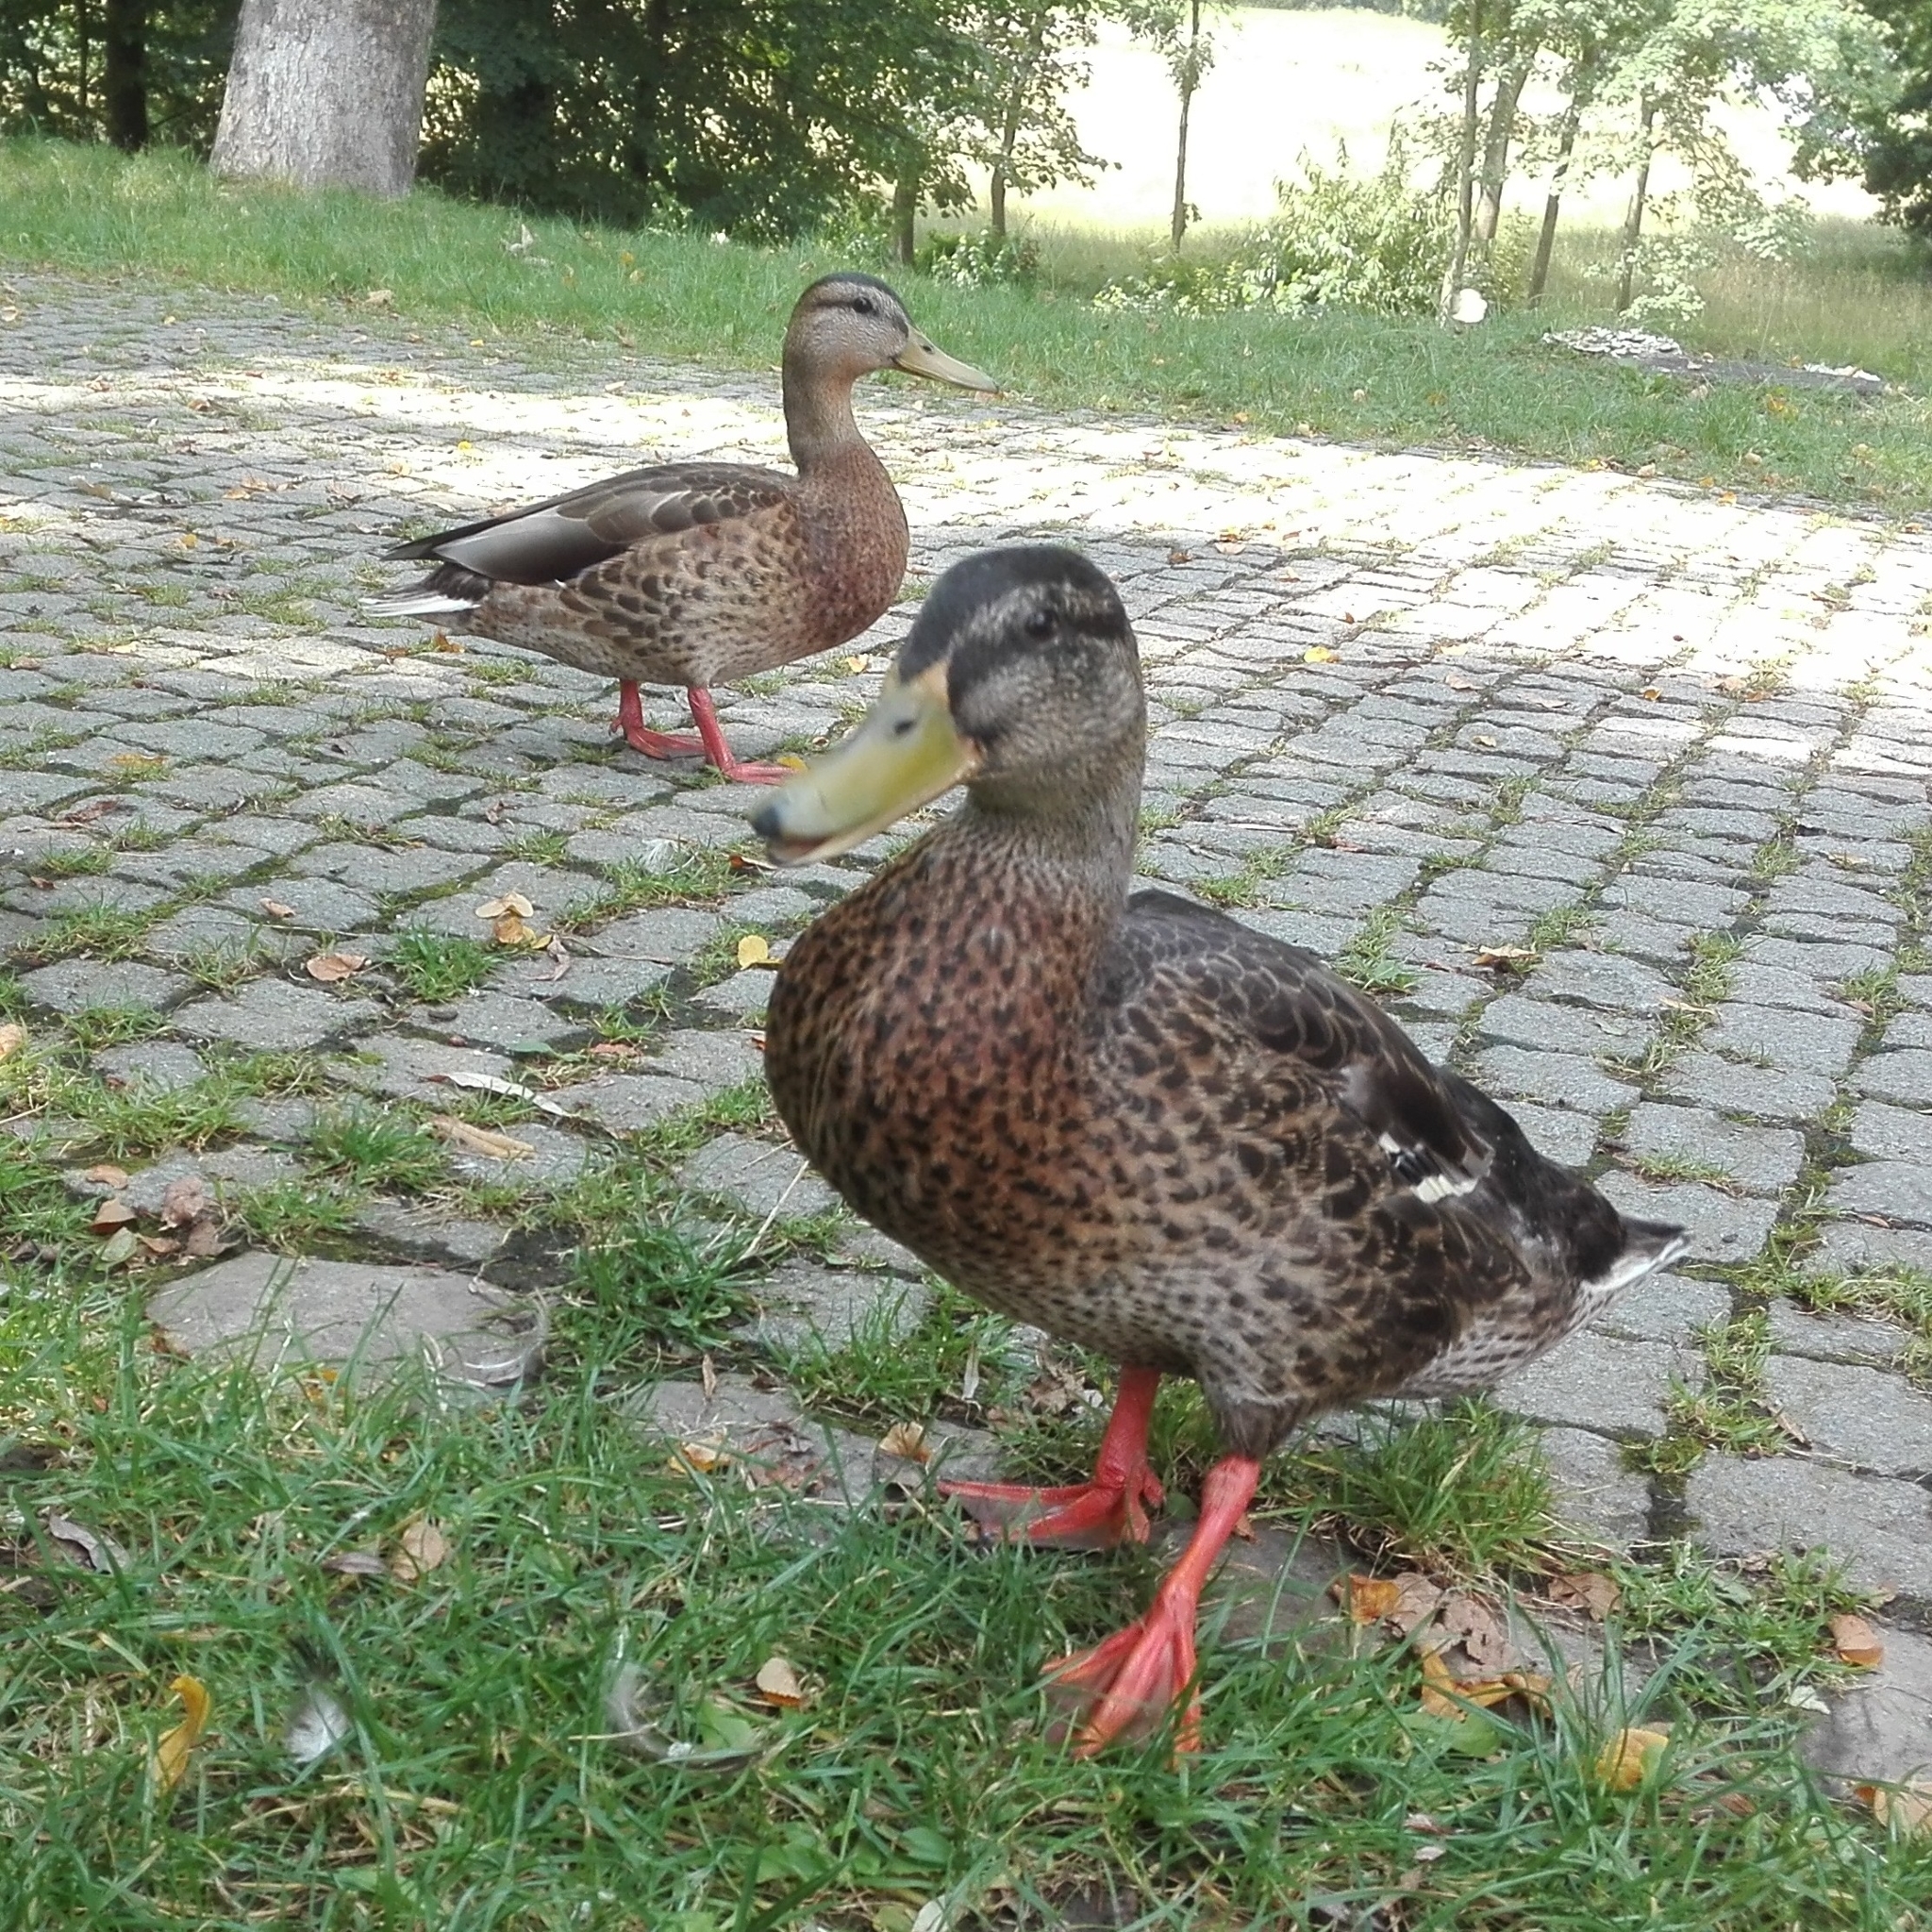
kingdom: Animalia
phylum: Chordata
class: Aves
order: Anseriformes
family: Anatidae
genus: Anas
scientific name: Anas platyrhynchos
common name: Mallard
